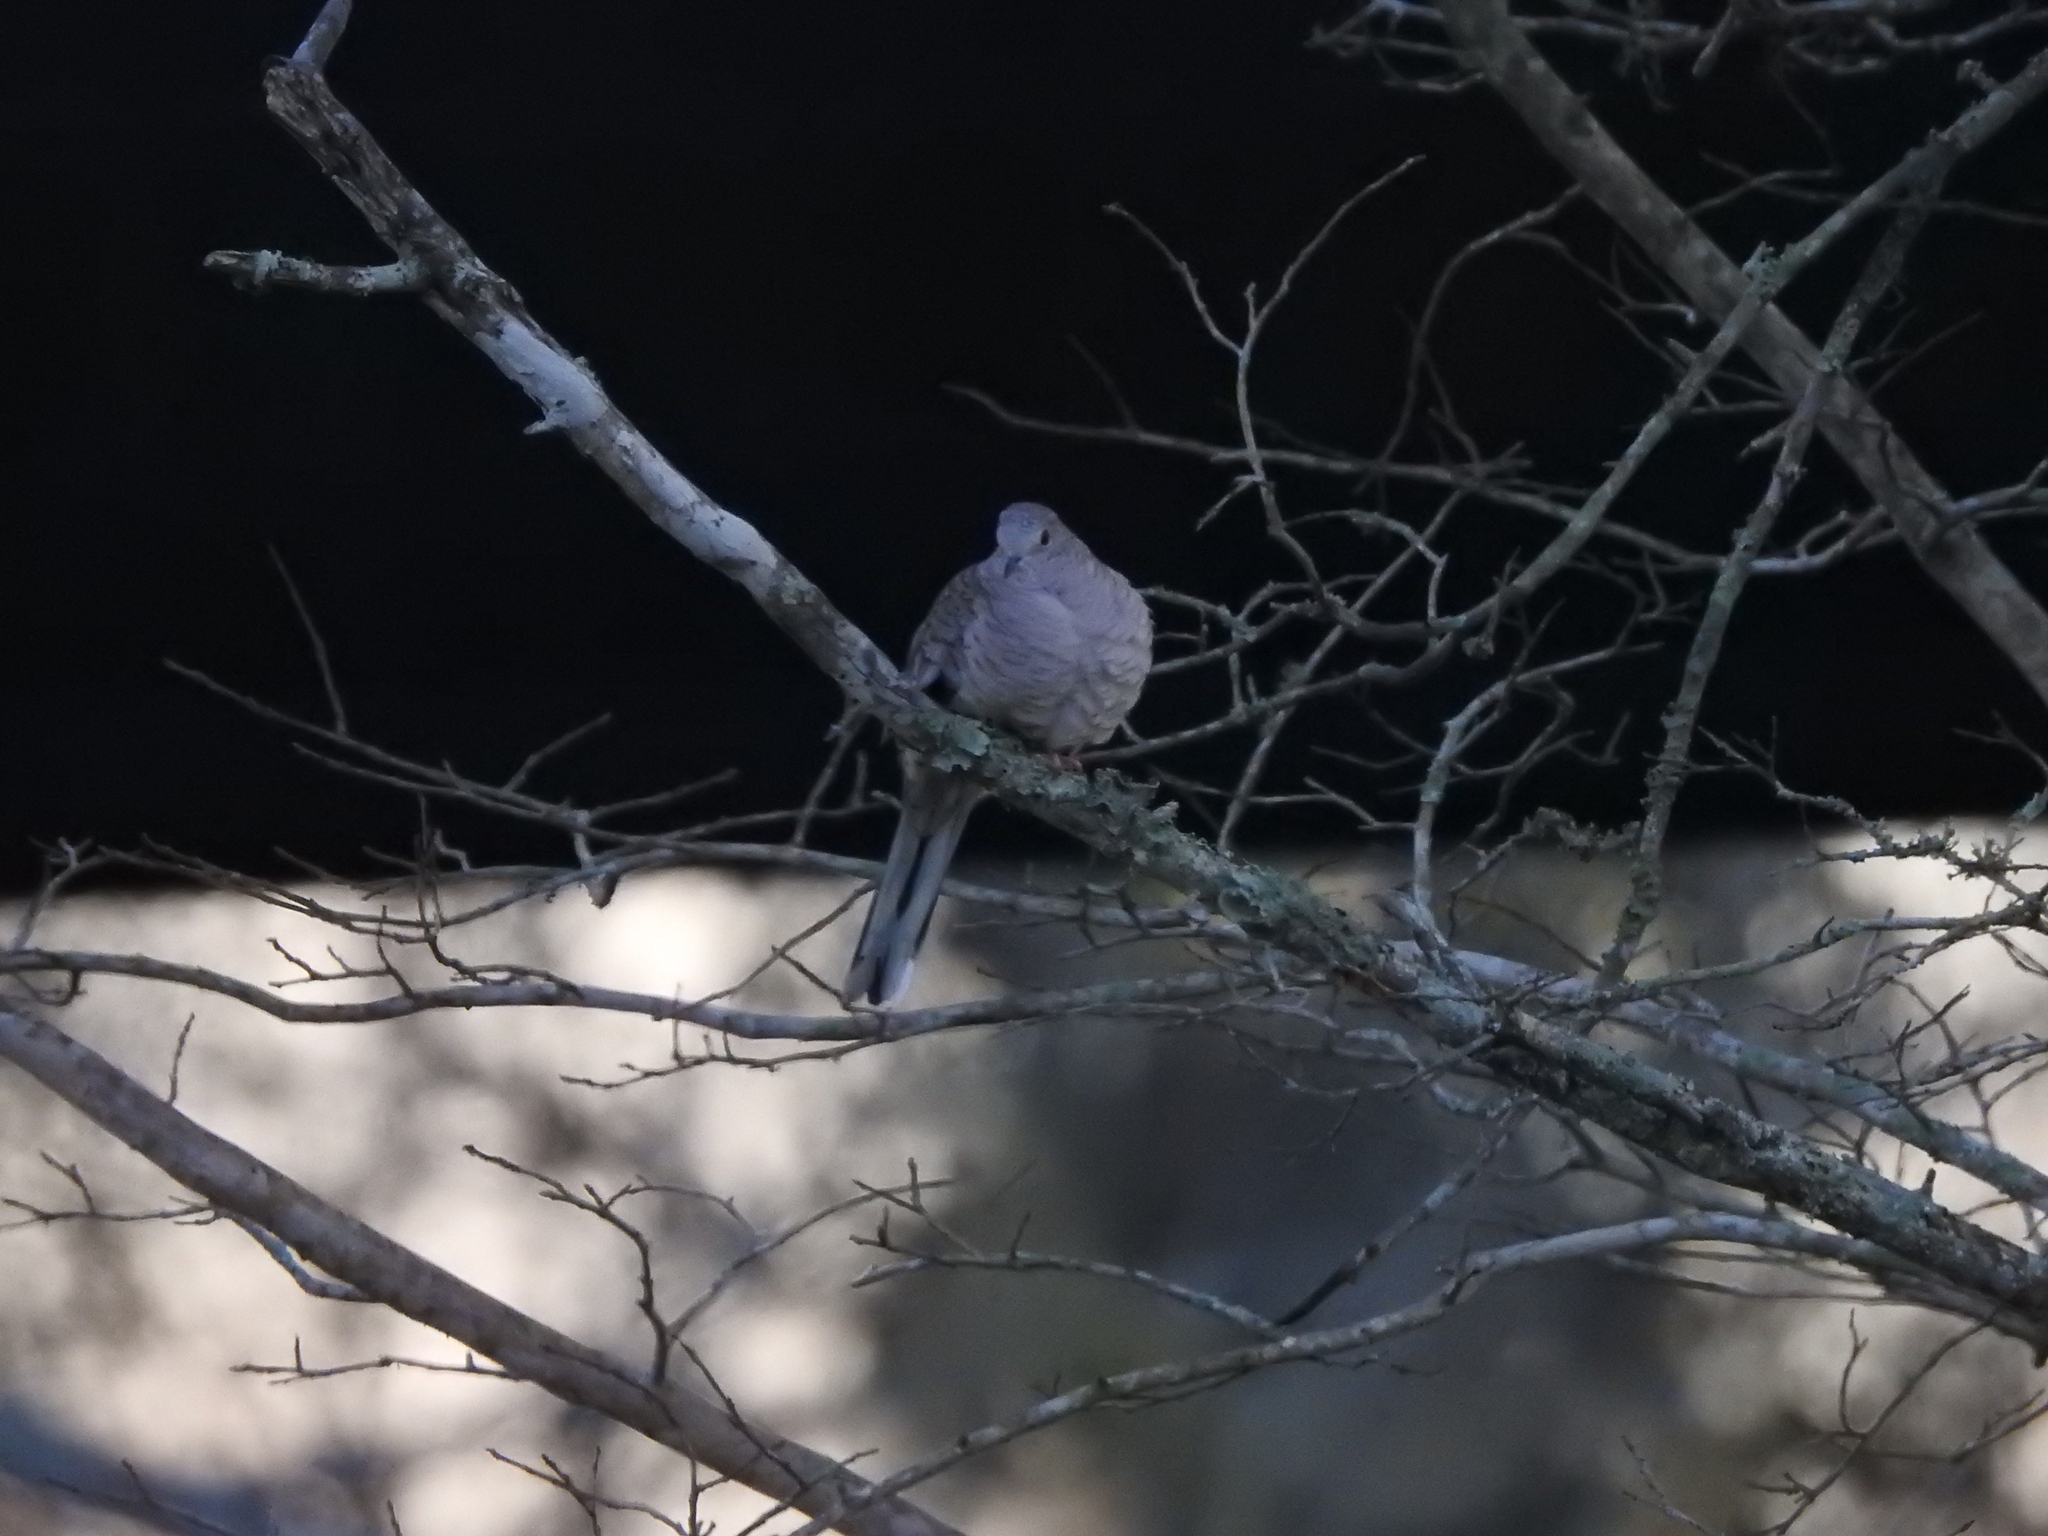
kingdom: Animalia
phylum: Chordata
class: Aves
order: Columbiformes
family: Columbidae
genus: Columbina
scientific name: Columbina inca
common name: Inca dove
